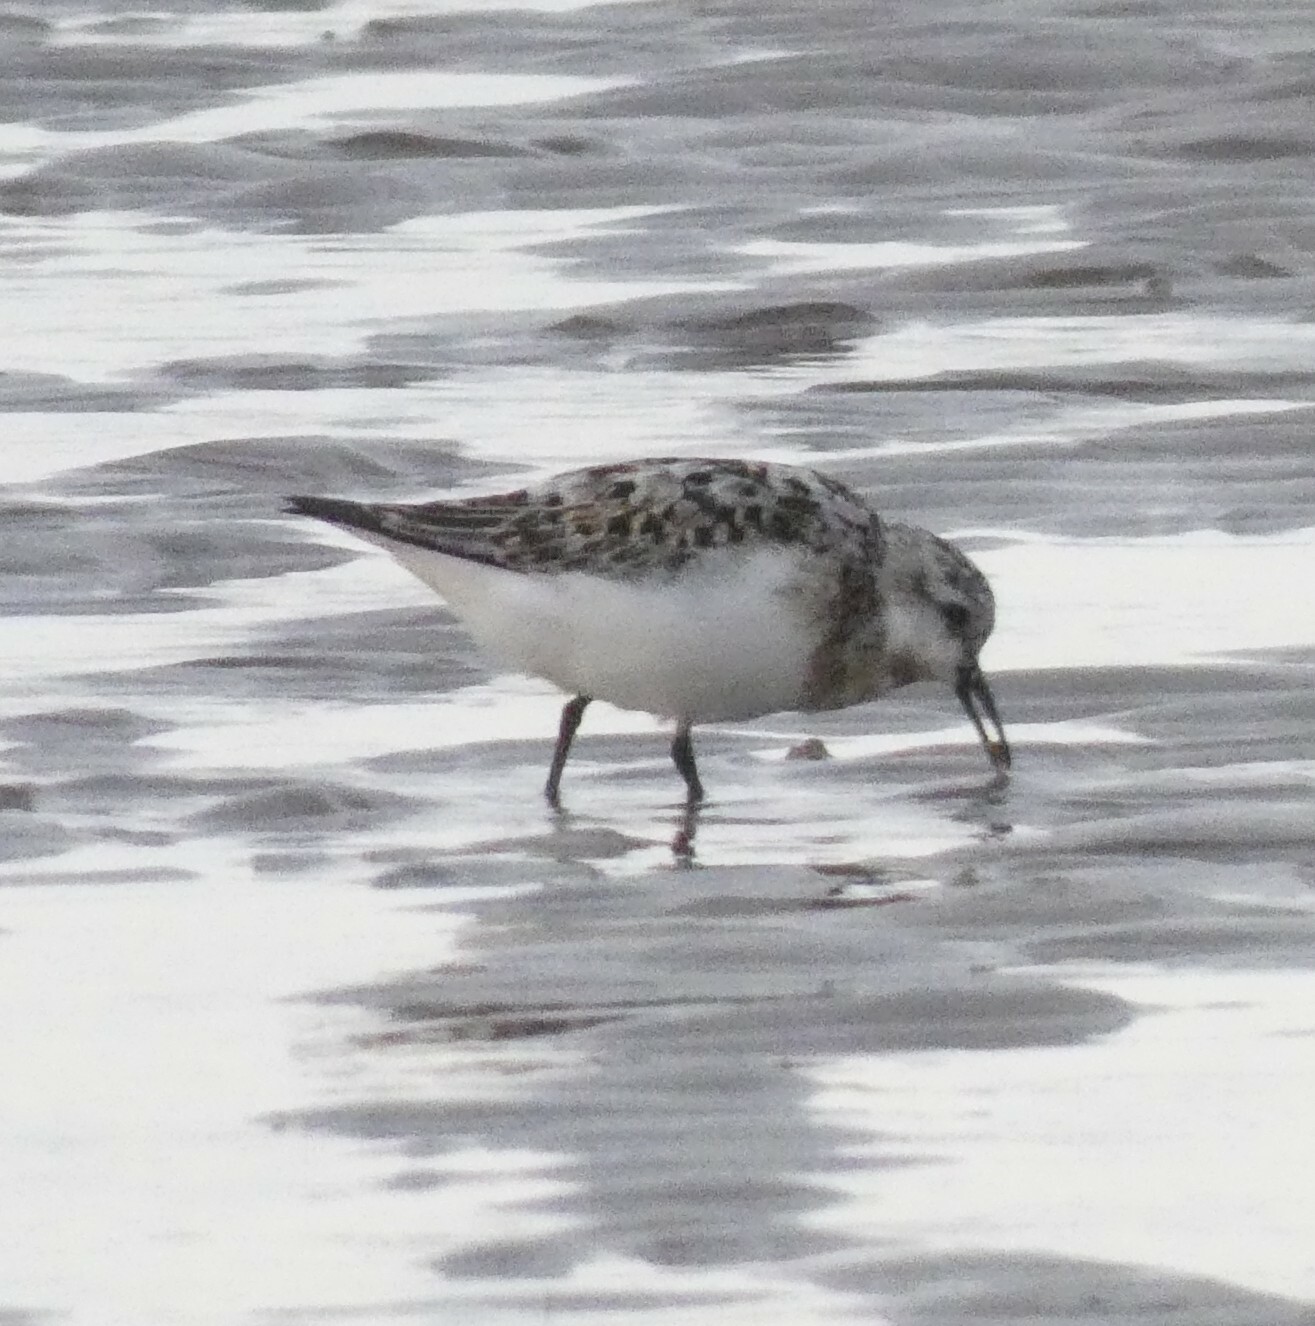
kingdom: Animalia
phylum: Chordata
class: Aves
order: Charadriiformes
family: Scolopacidae
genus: Calidris
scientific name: Calidris alba
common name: Sanderling
